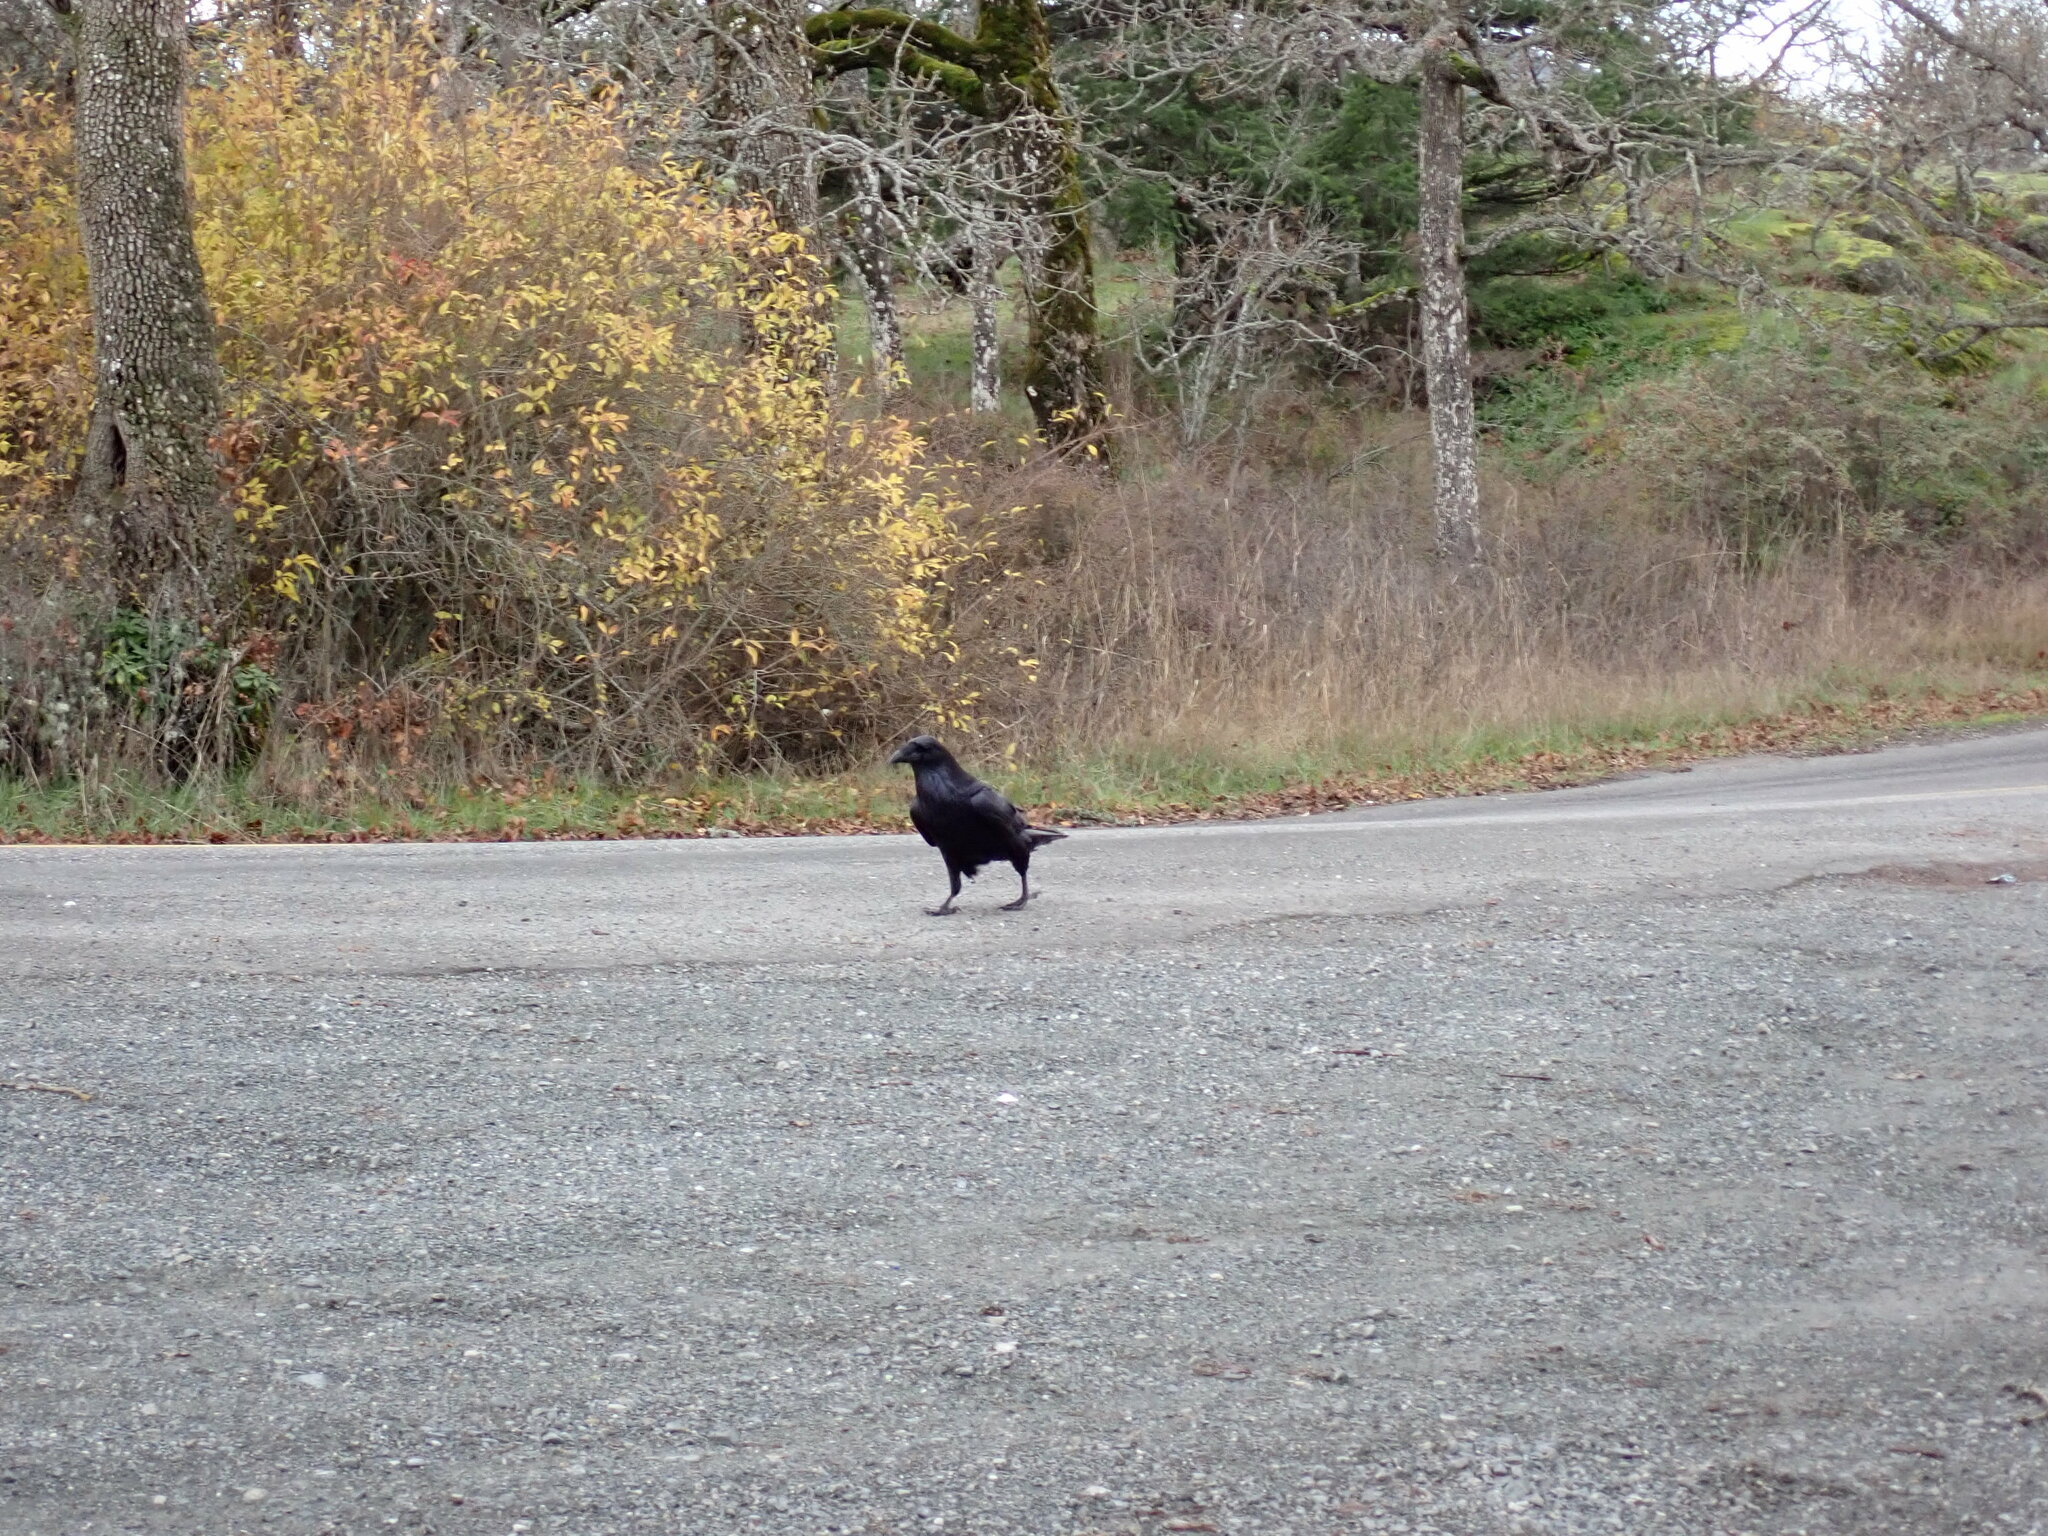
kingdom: Animalia
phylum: Chordata
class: Aves
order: Passeriformes
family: Corvidae
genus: Corvus
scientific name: Corvus corax
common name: Common raven
